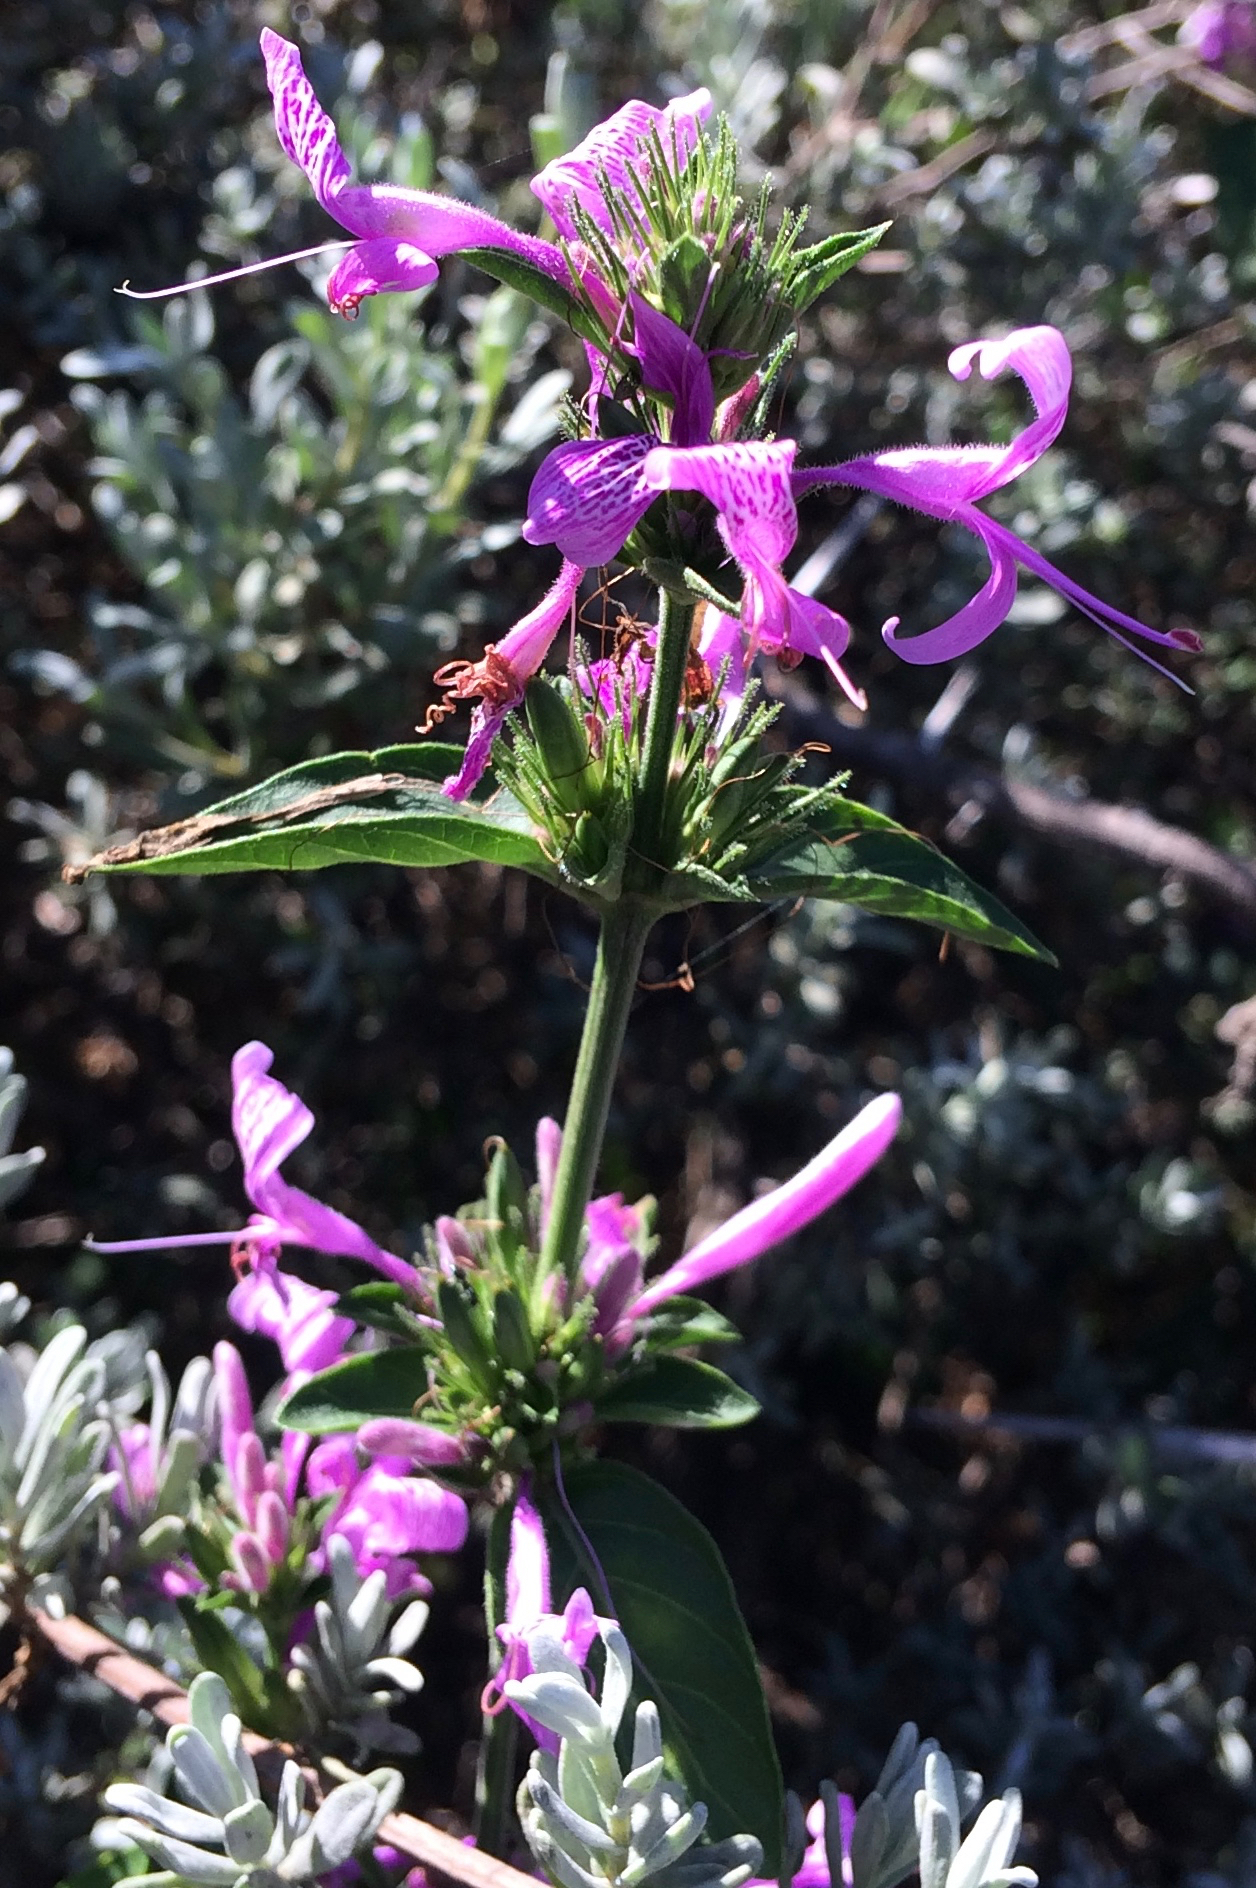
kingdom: Plantae
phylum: Tracheophyta
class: Magnoliopsida
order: Lamiales
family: Acanthaceae
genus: Hypoestes
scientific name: Hypoestes aristata
